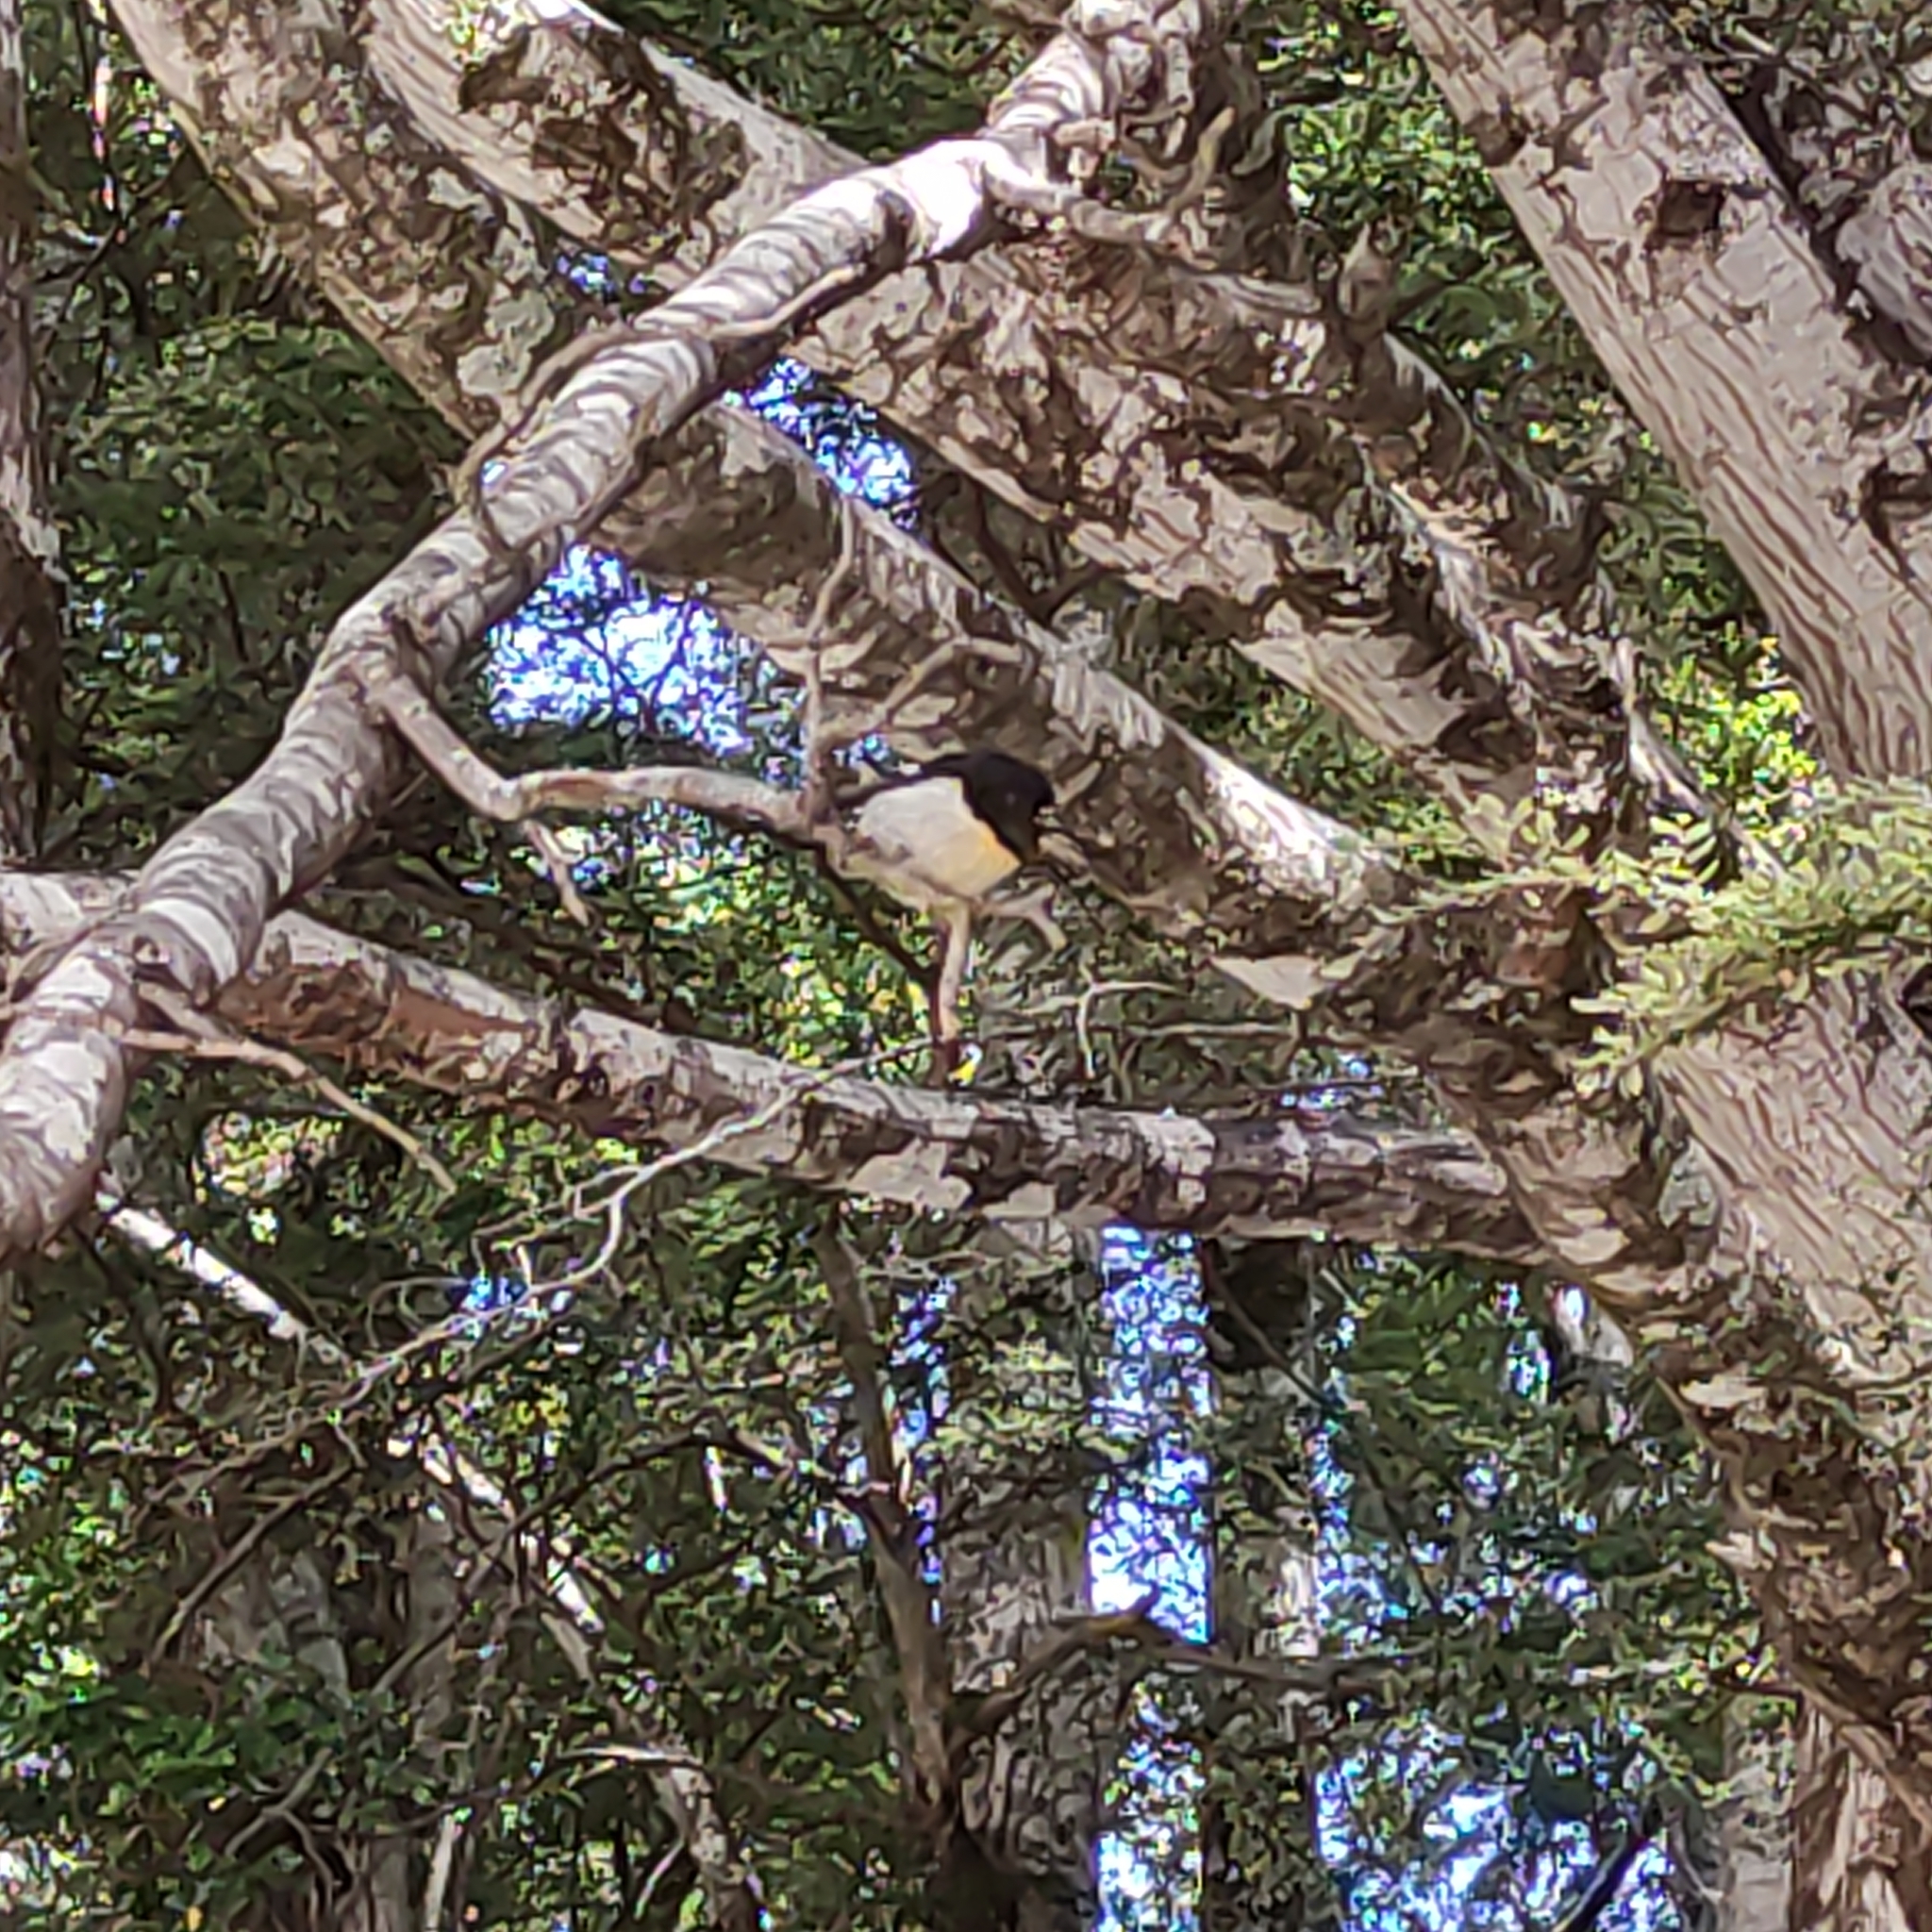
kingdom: Animalia
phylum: Chordata
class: Aves
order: Passeriformes
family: Petroicidae
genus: Petroica
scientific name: Petroica macrocephala
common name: Tomtit
